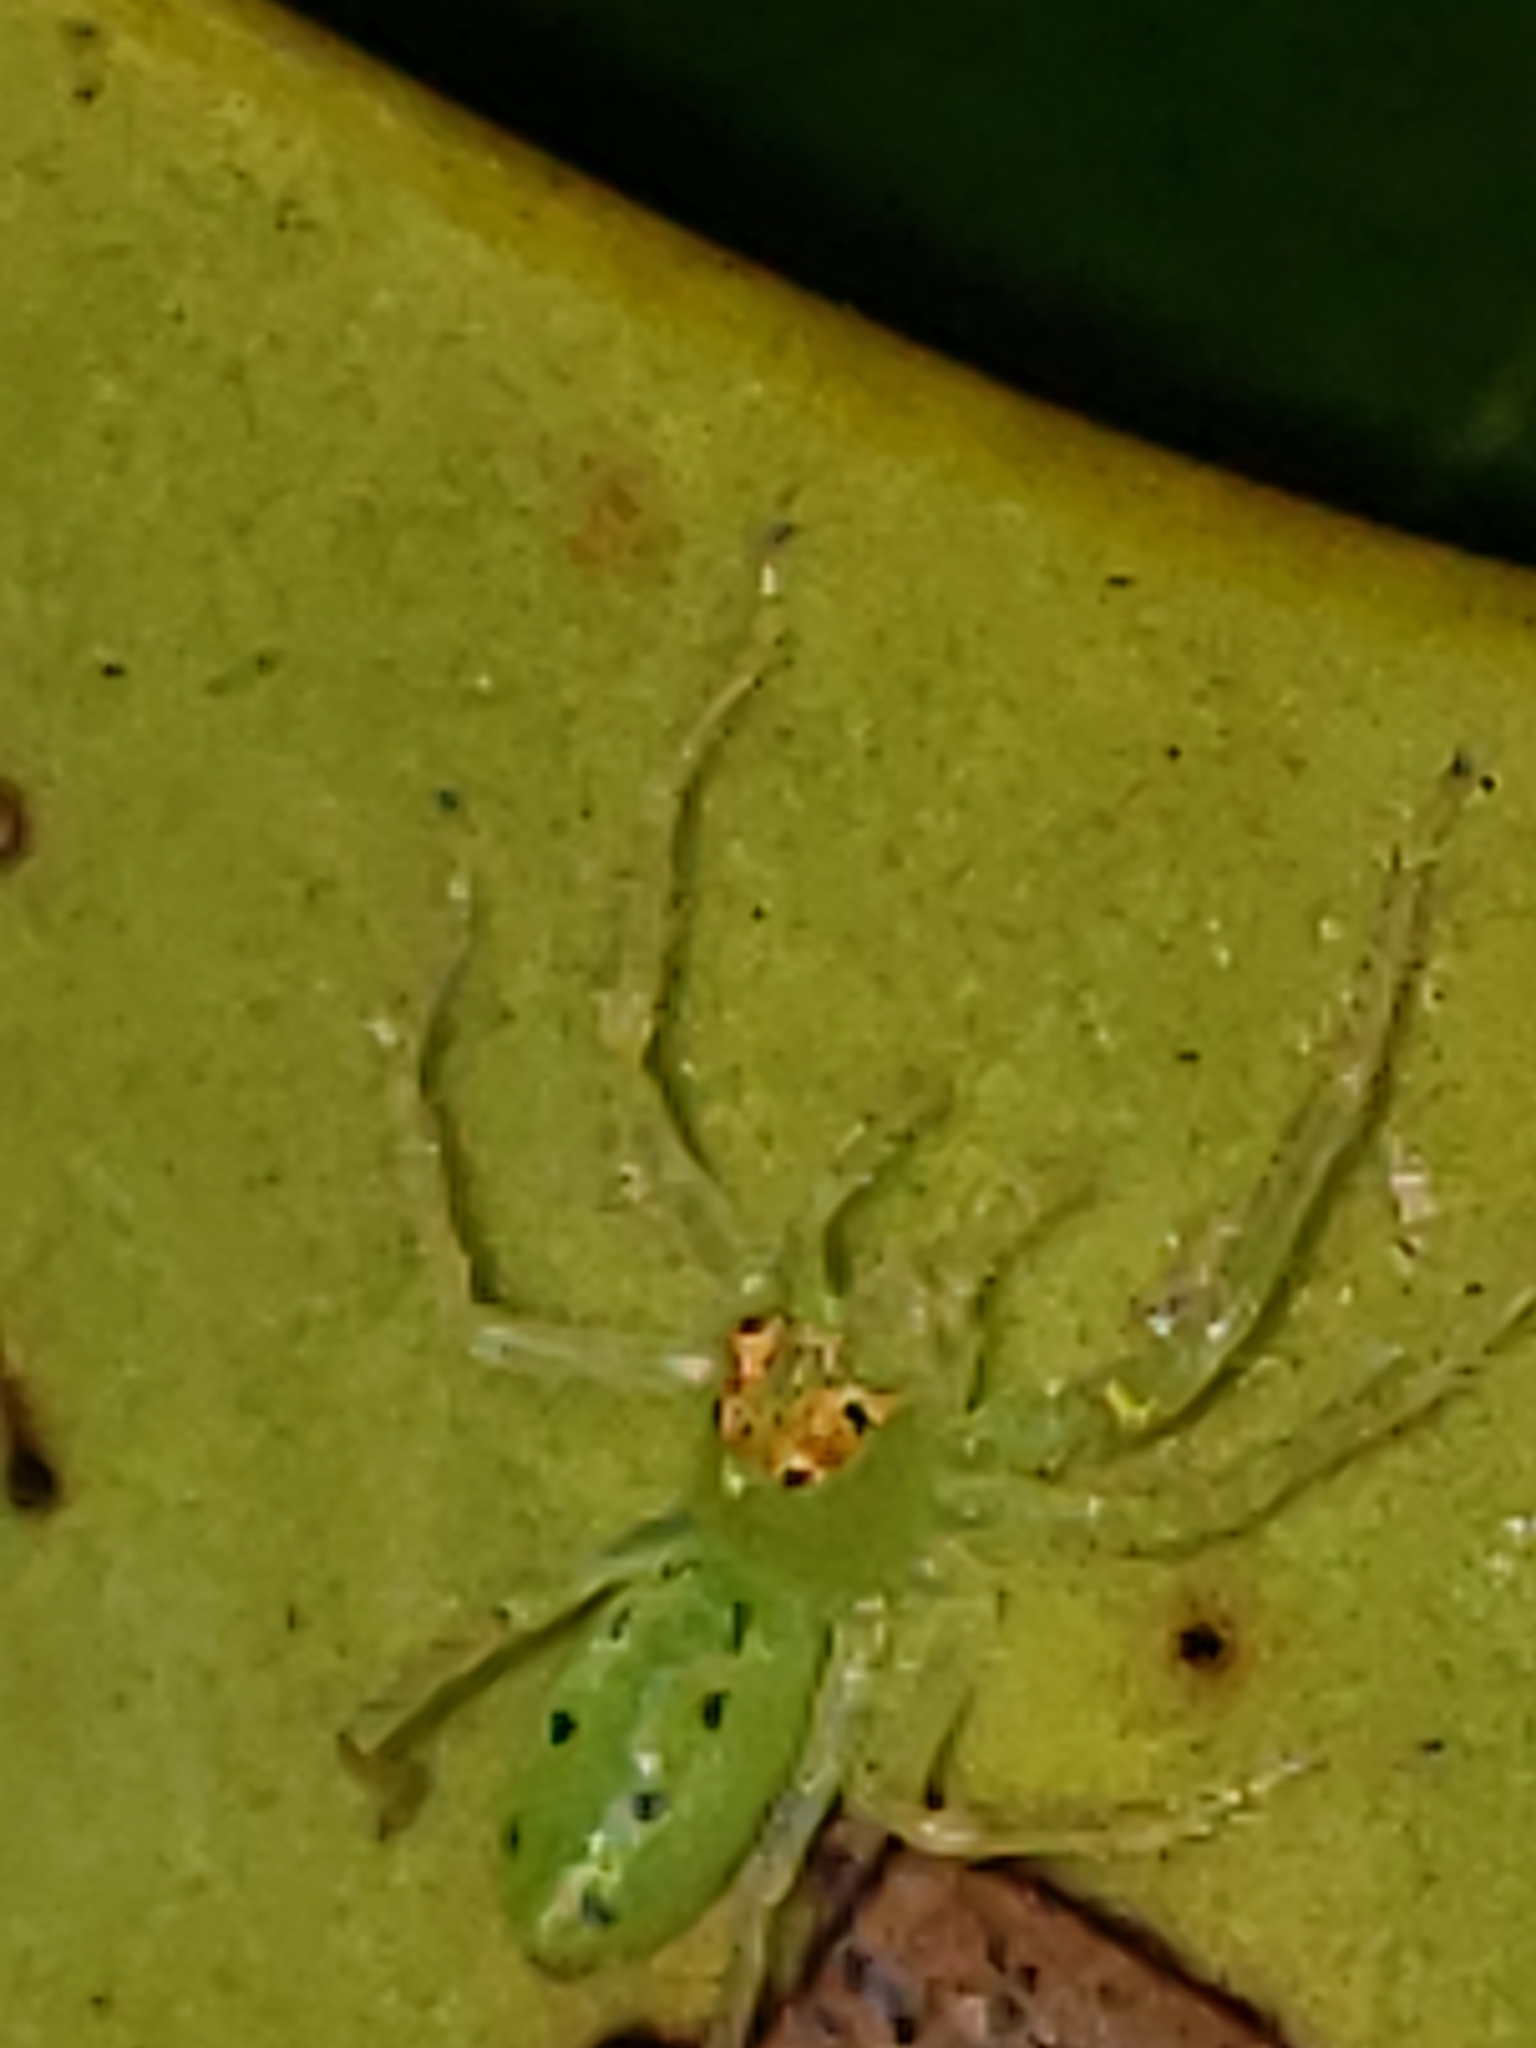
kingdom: Animalia
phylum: Arthropoda
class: Arachnida
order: Araneae
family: Salticidae
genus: Lyssomanes
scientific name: Lyssomanes viridis
